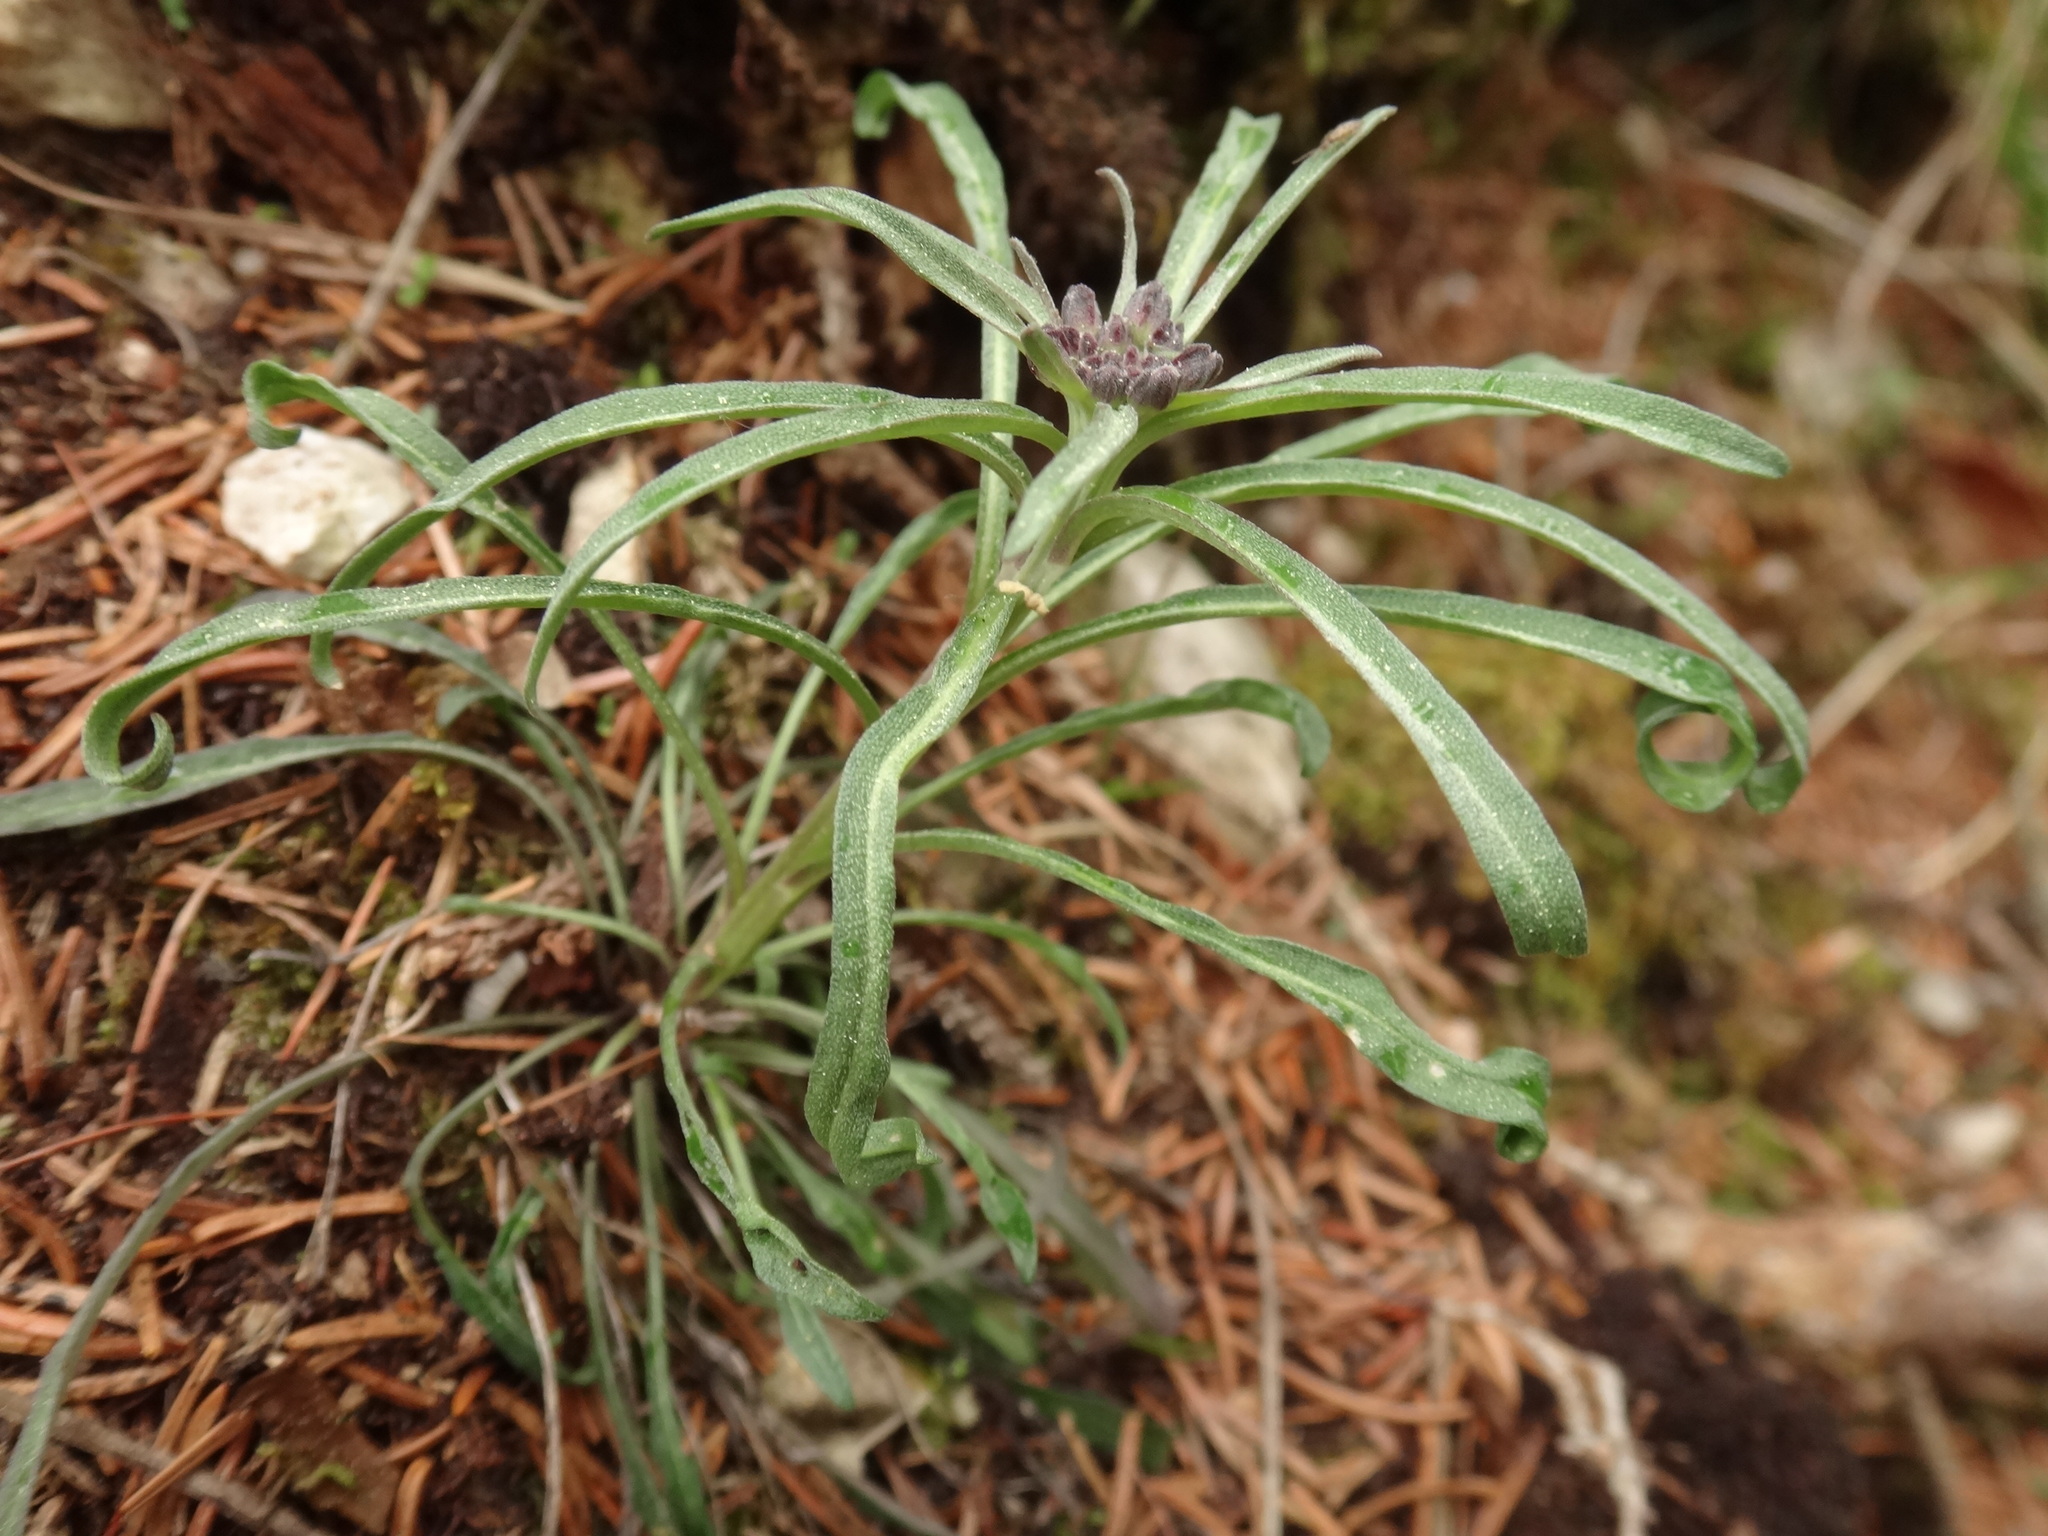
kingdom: Plantae
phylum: Tracheophyta
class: Magnoliopsida
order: Brassicales
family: Brassicaceae
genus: Erysimum
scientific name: Erysimum sylvestre
